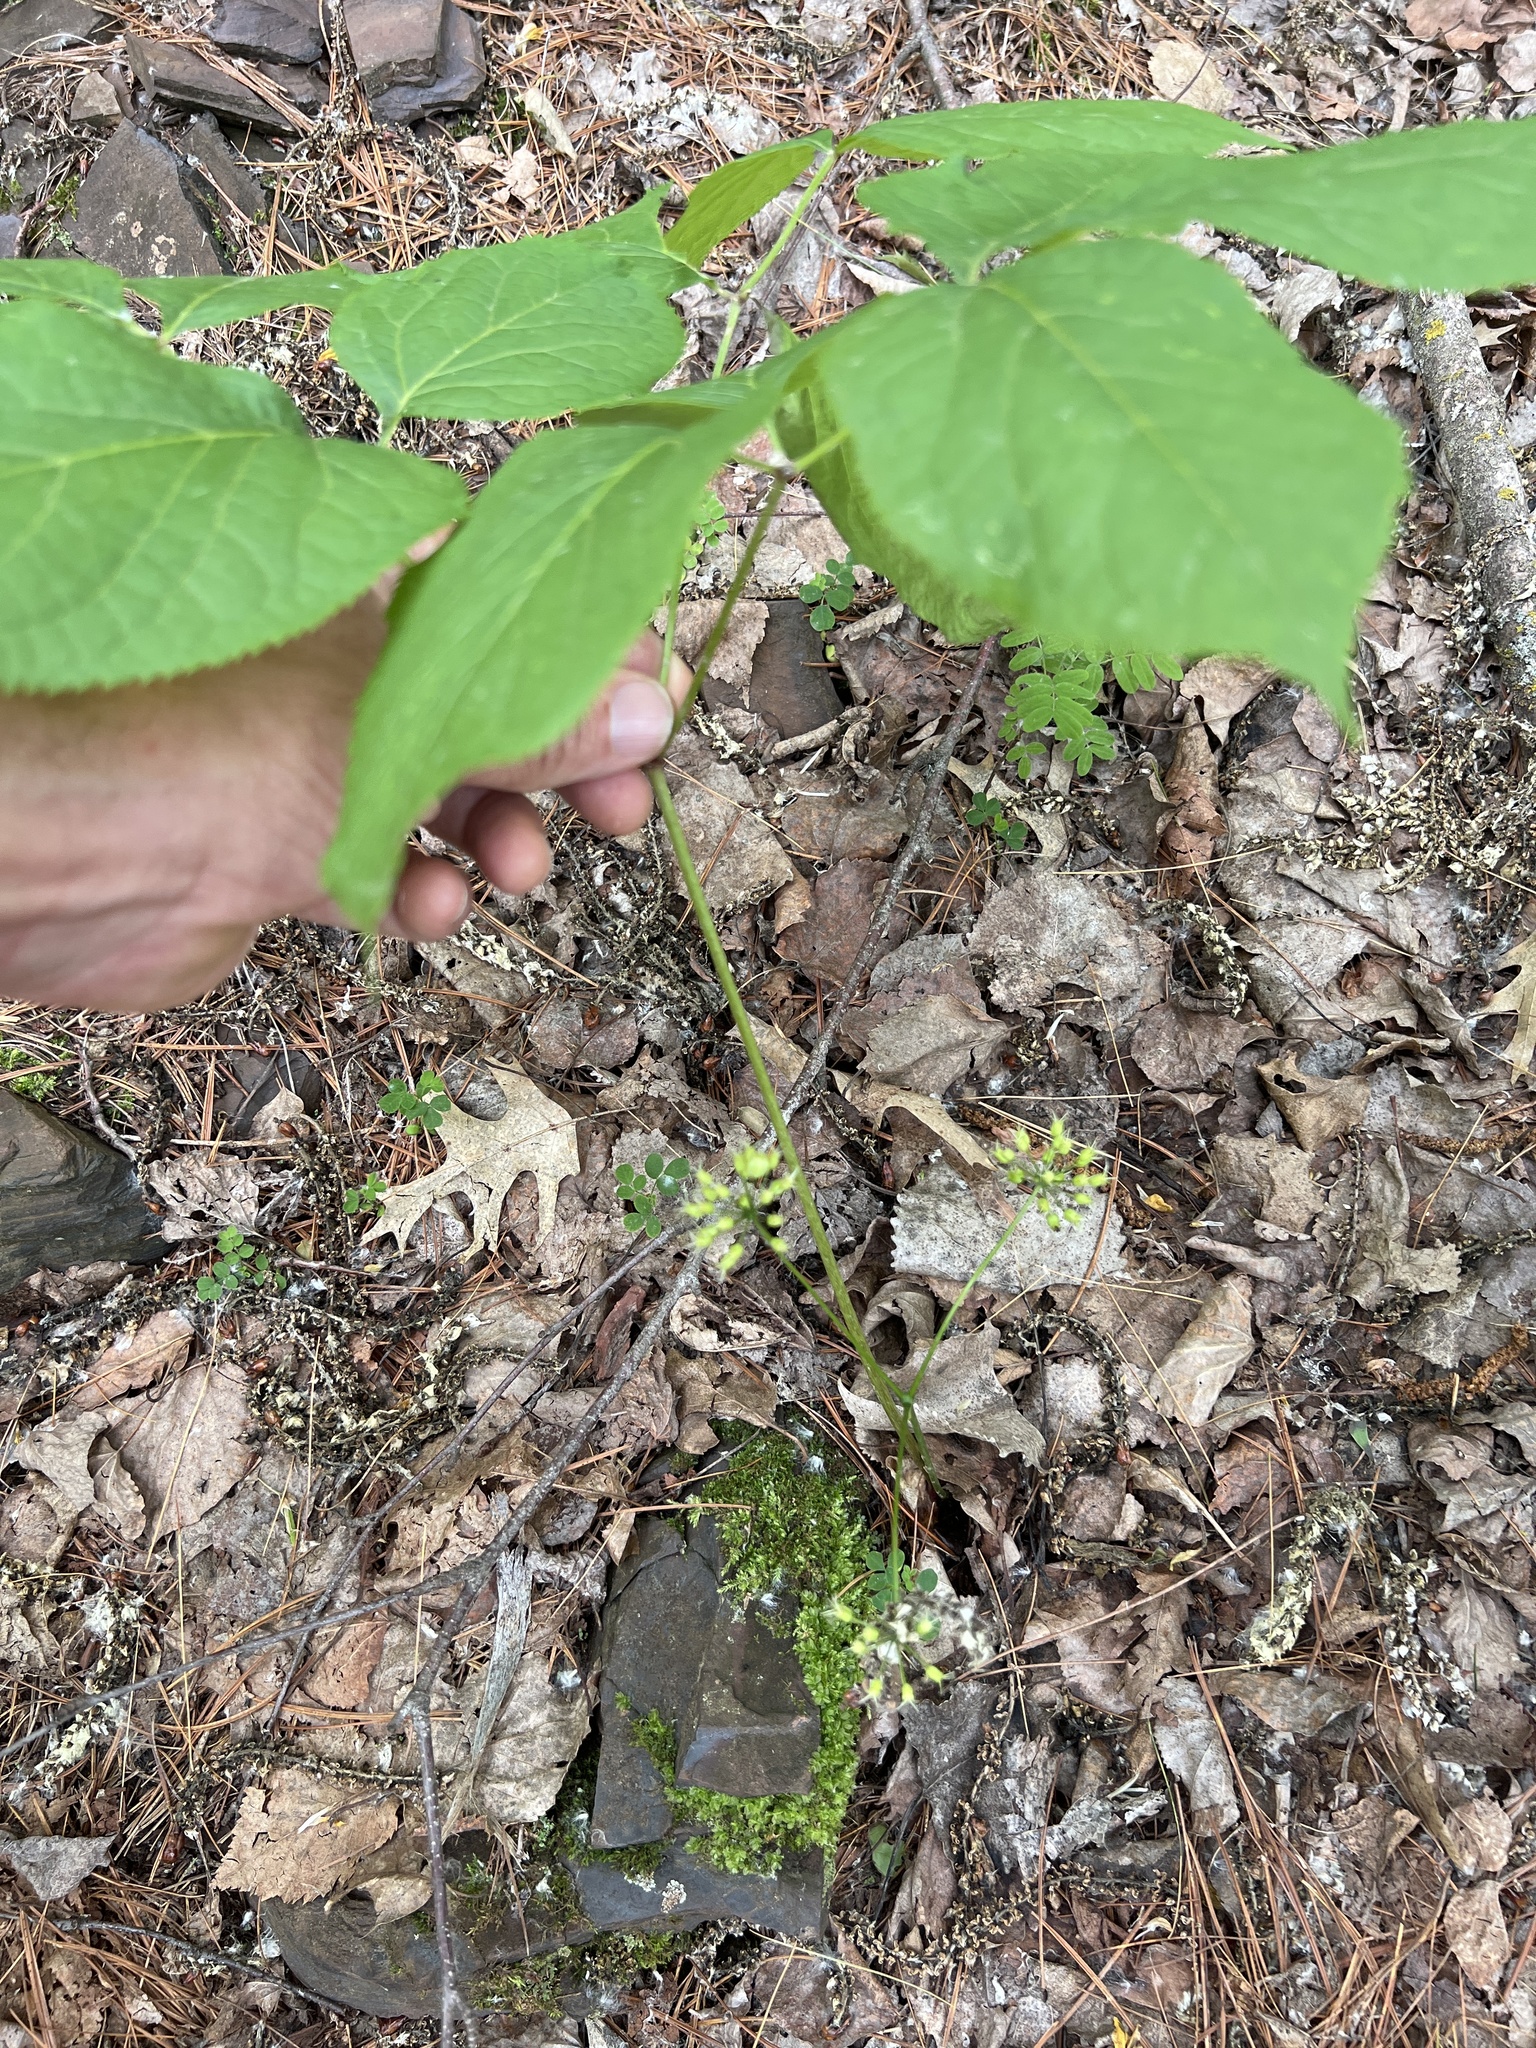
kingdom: Plantae
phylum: Tracheophyta
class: Magnoliopsida
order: Apiales
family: Araliaceae
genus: Aralia
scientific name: Aralia nudicaulis
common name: Wild sarsaparilla
